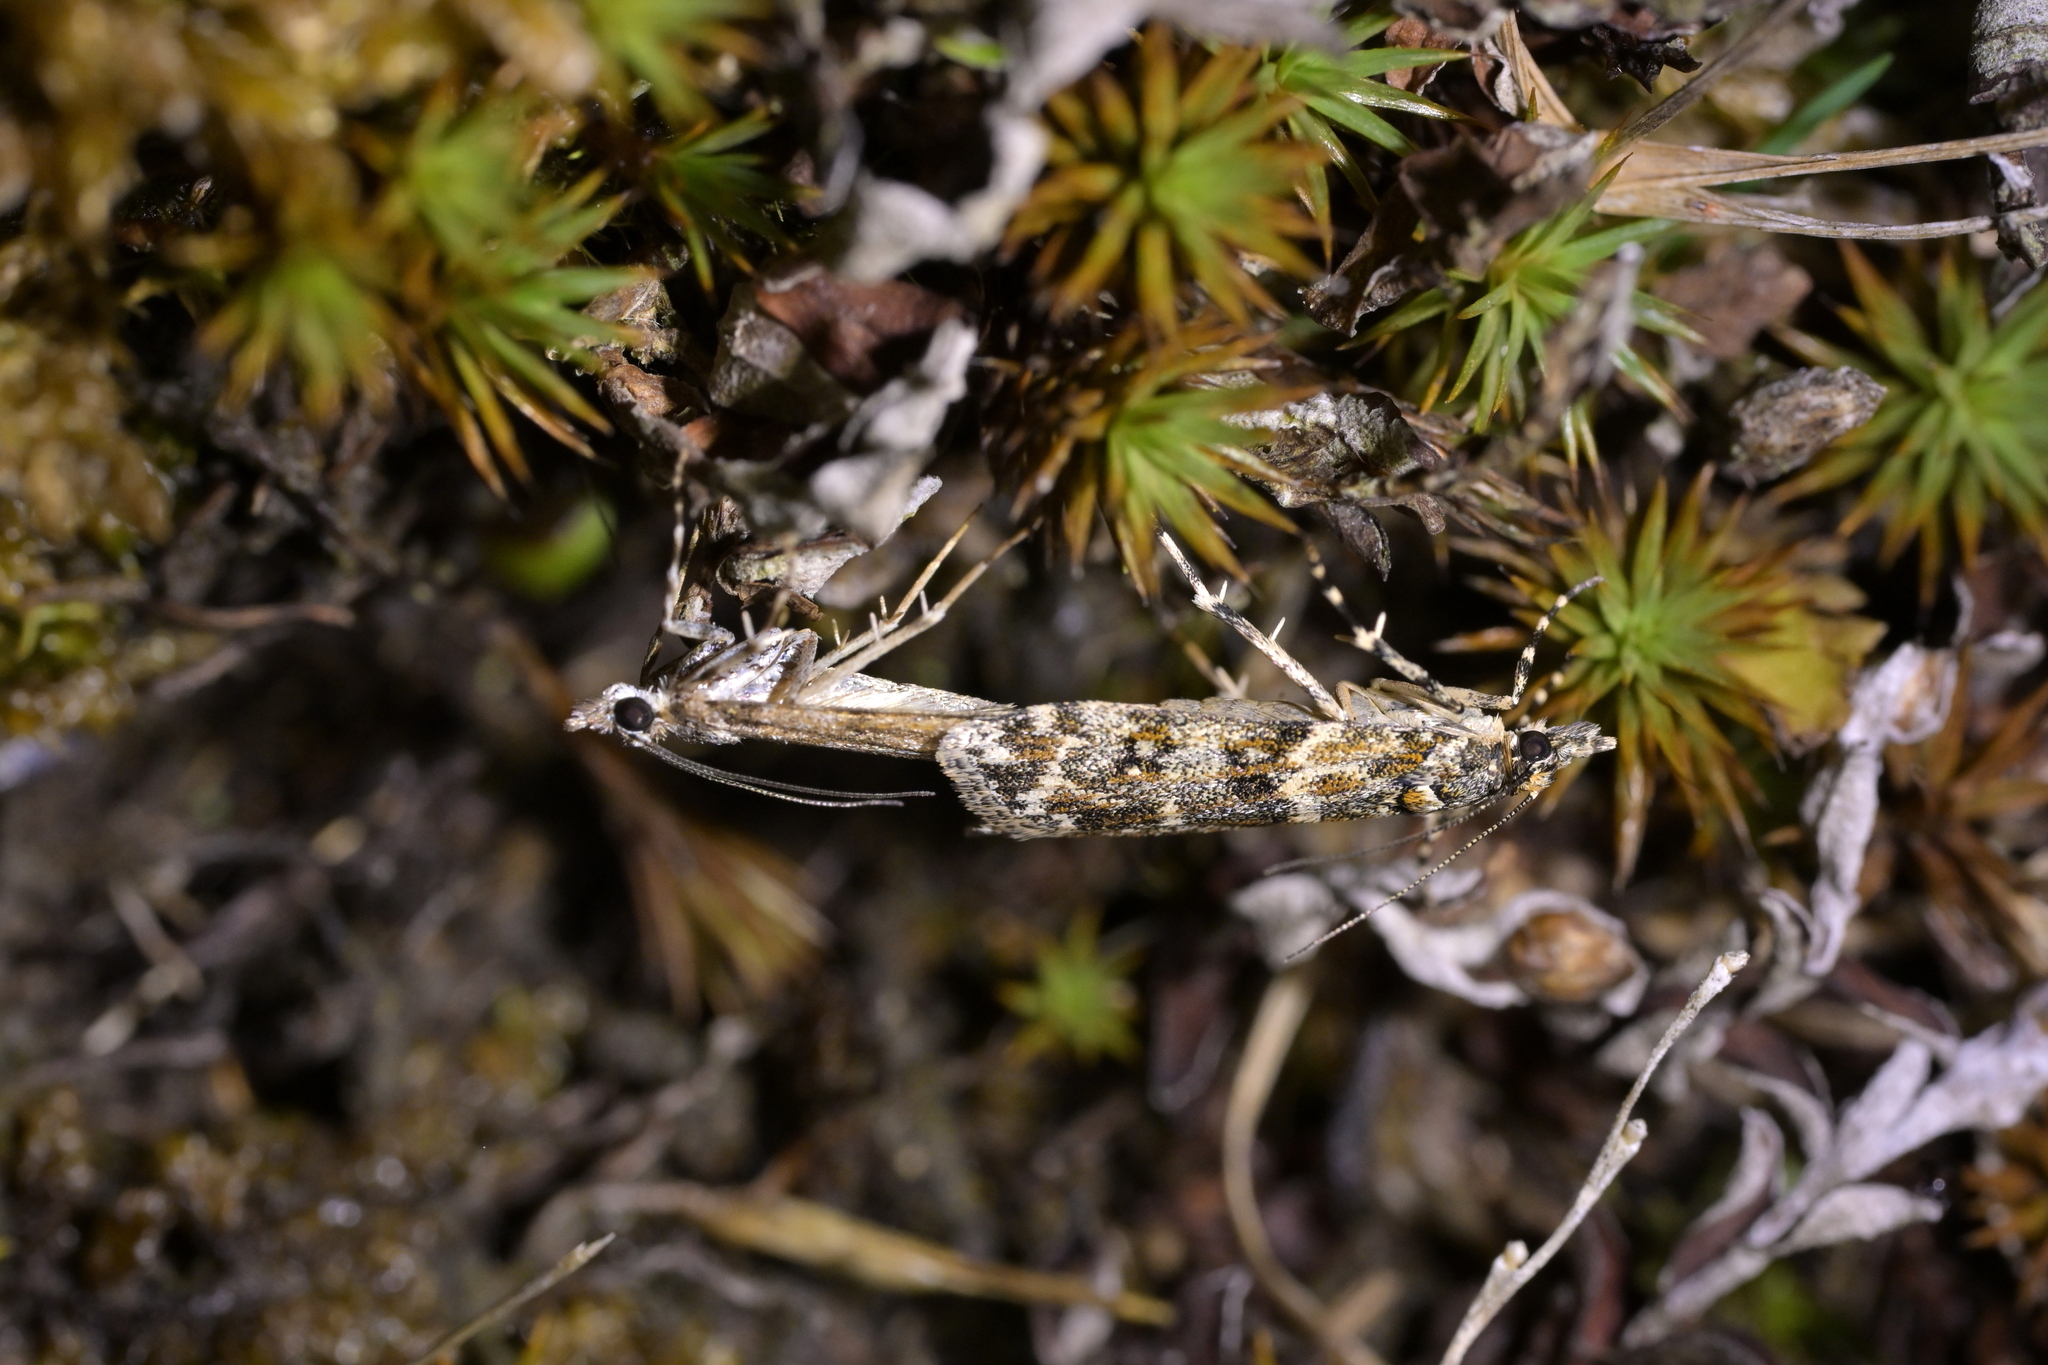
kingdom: Animalia
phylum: Arthropoda
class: Insecta
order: Lepidoptera
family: Crambidae
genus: Eudonia
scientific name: Eudonia
